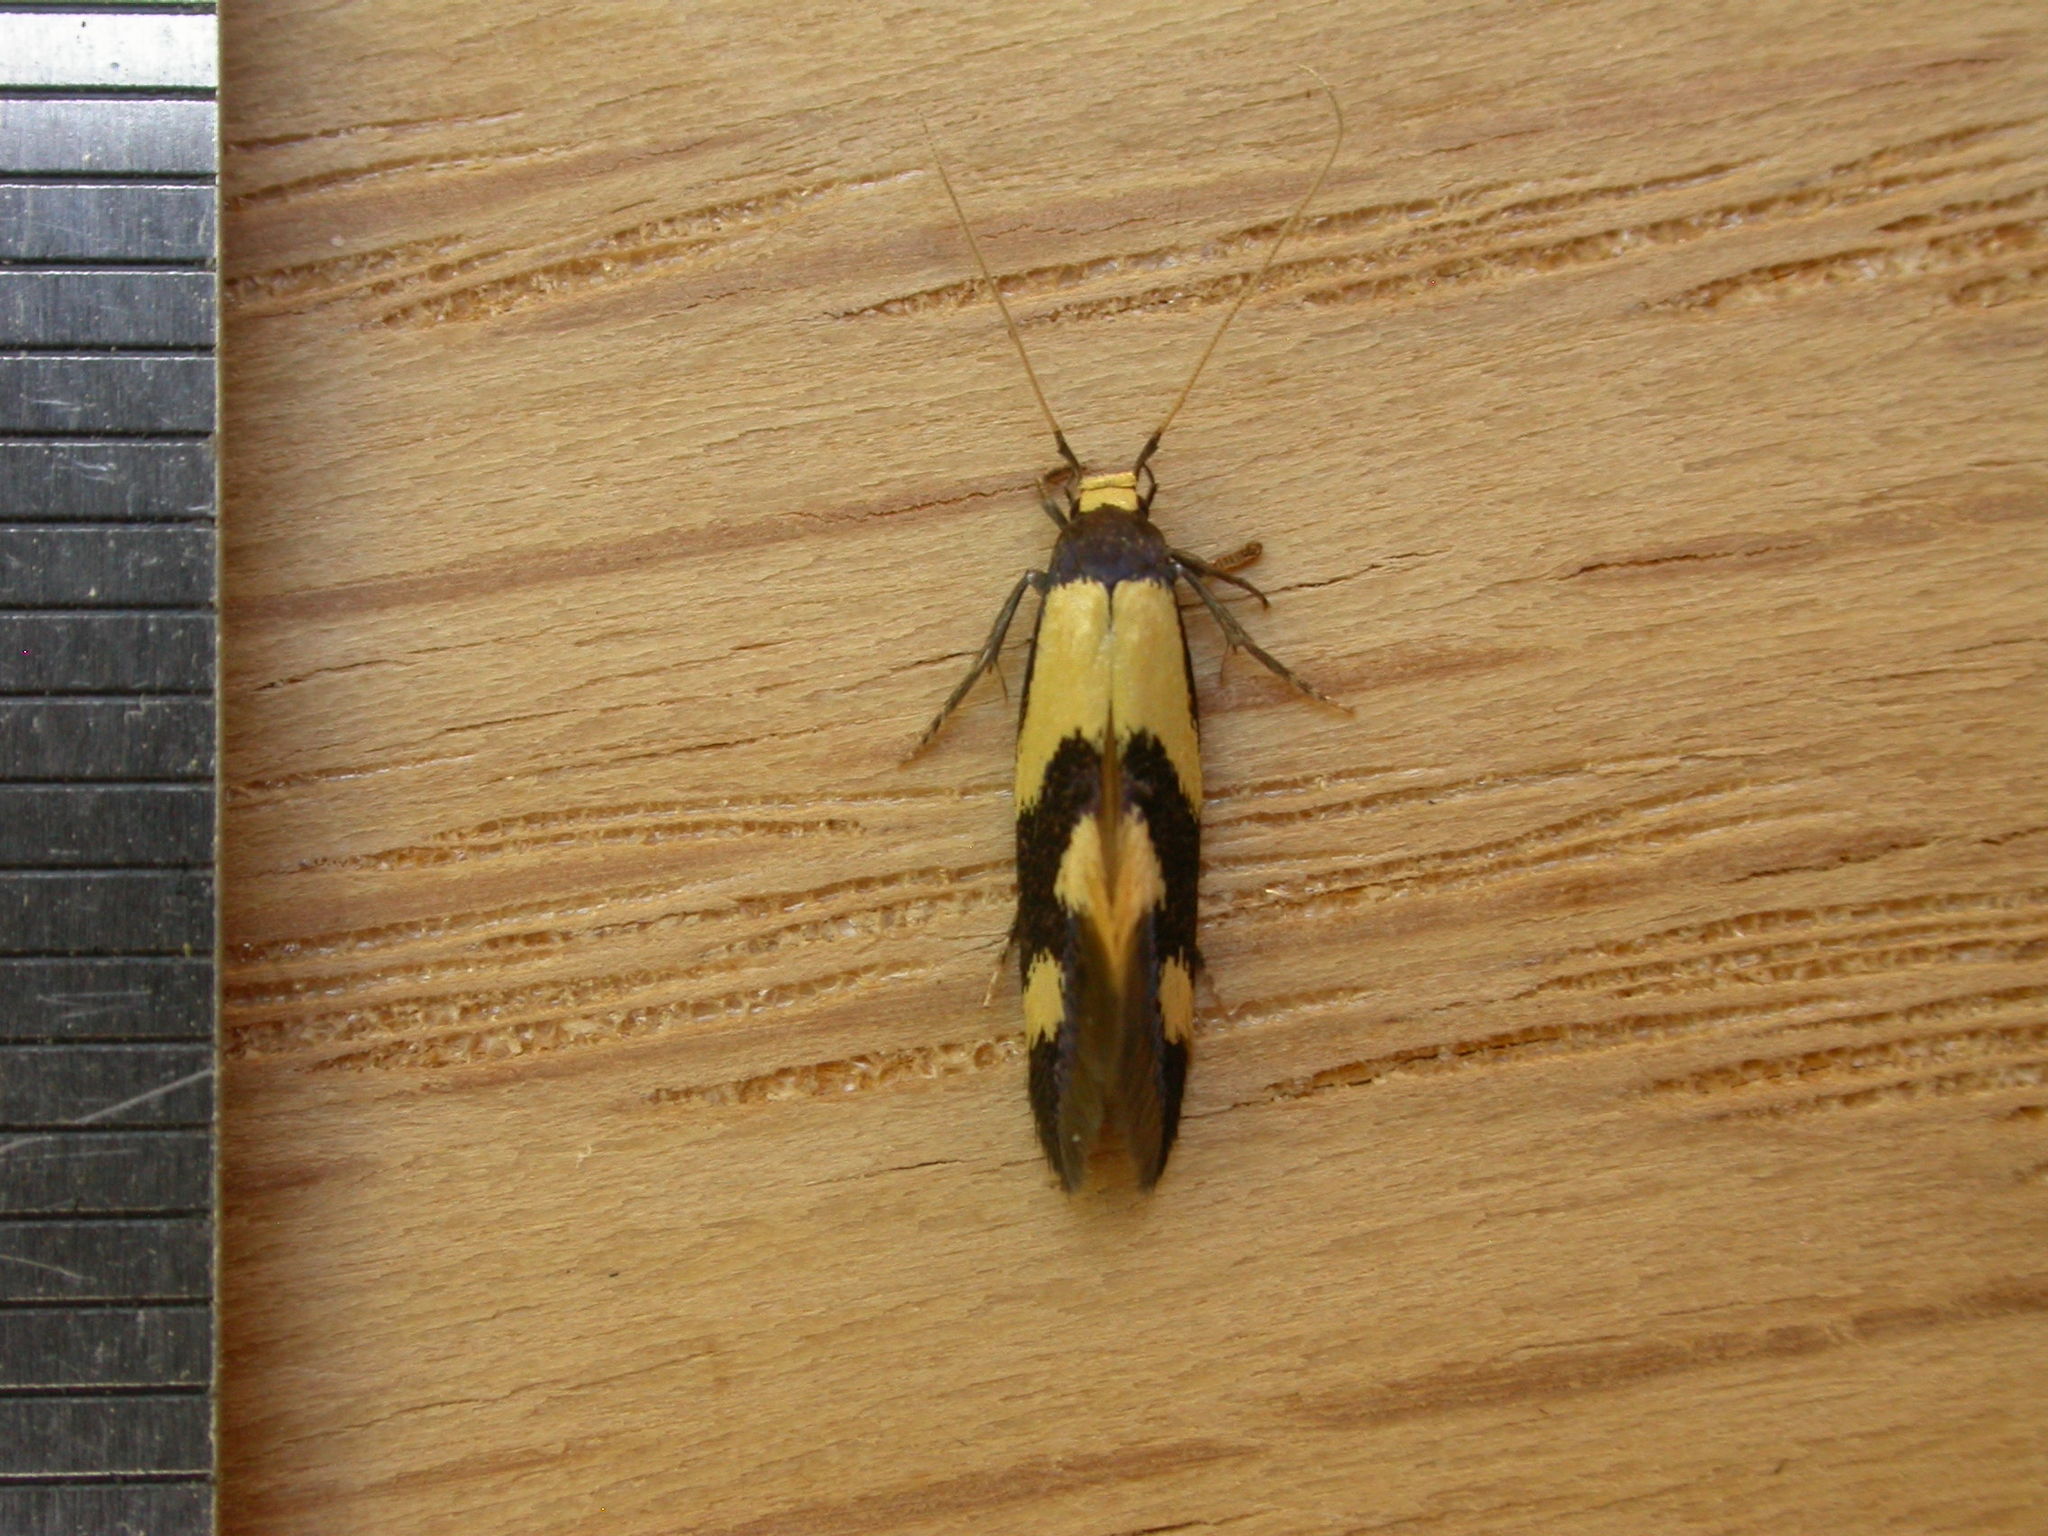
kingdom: Animalia
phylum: Arthropoda
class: Insecta
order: Lepidoptera
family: Tineidae
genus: Opogona
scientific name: Opogona comptella
